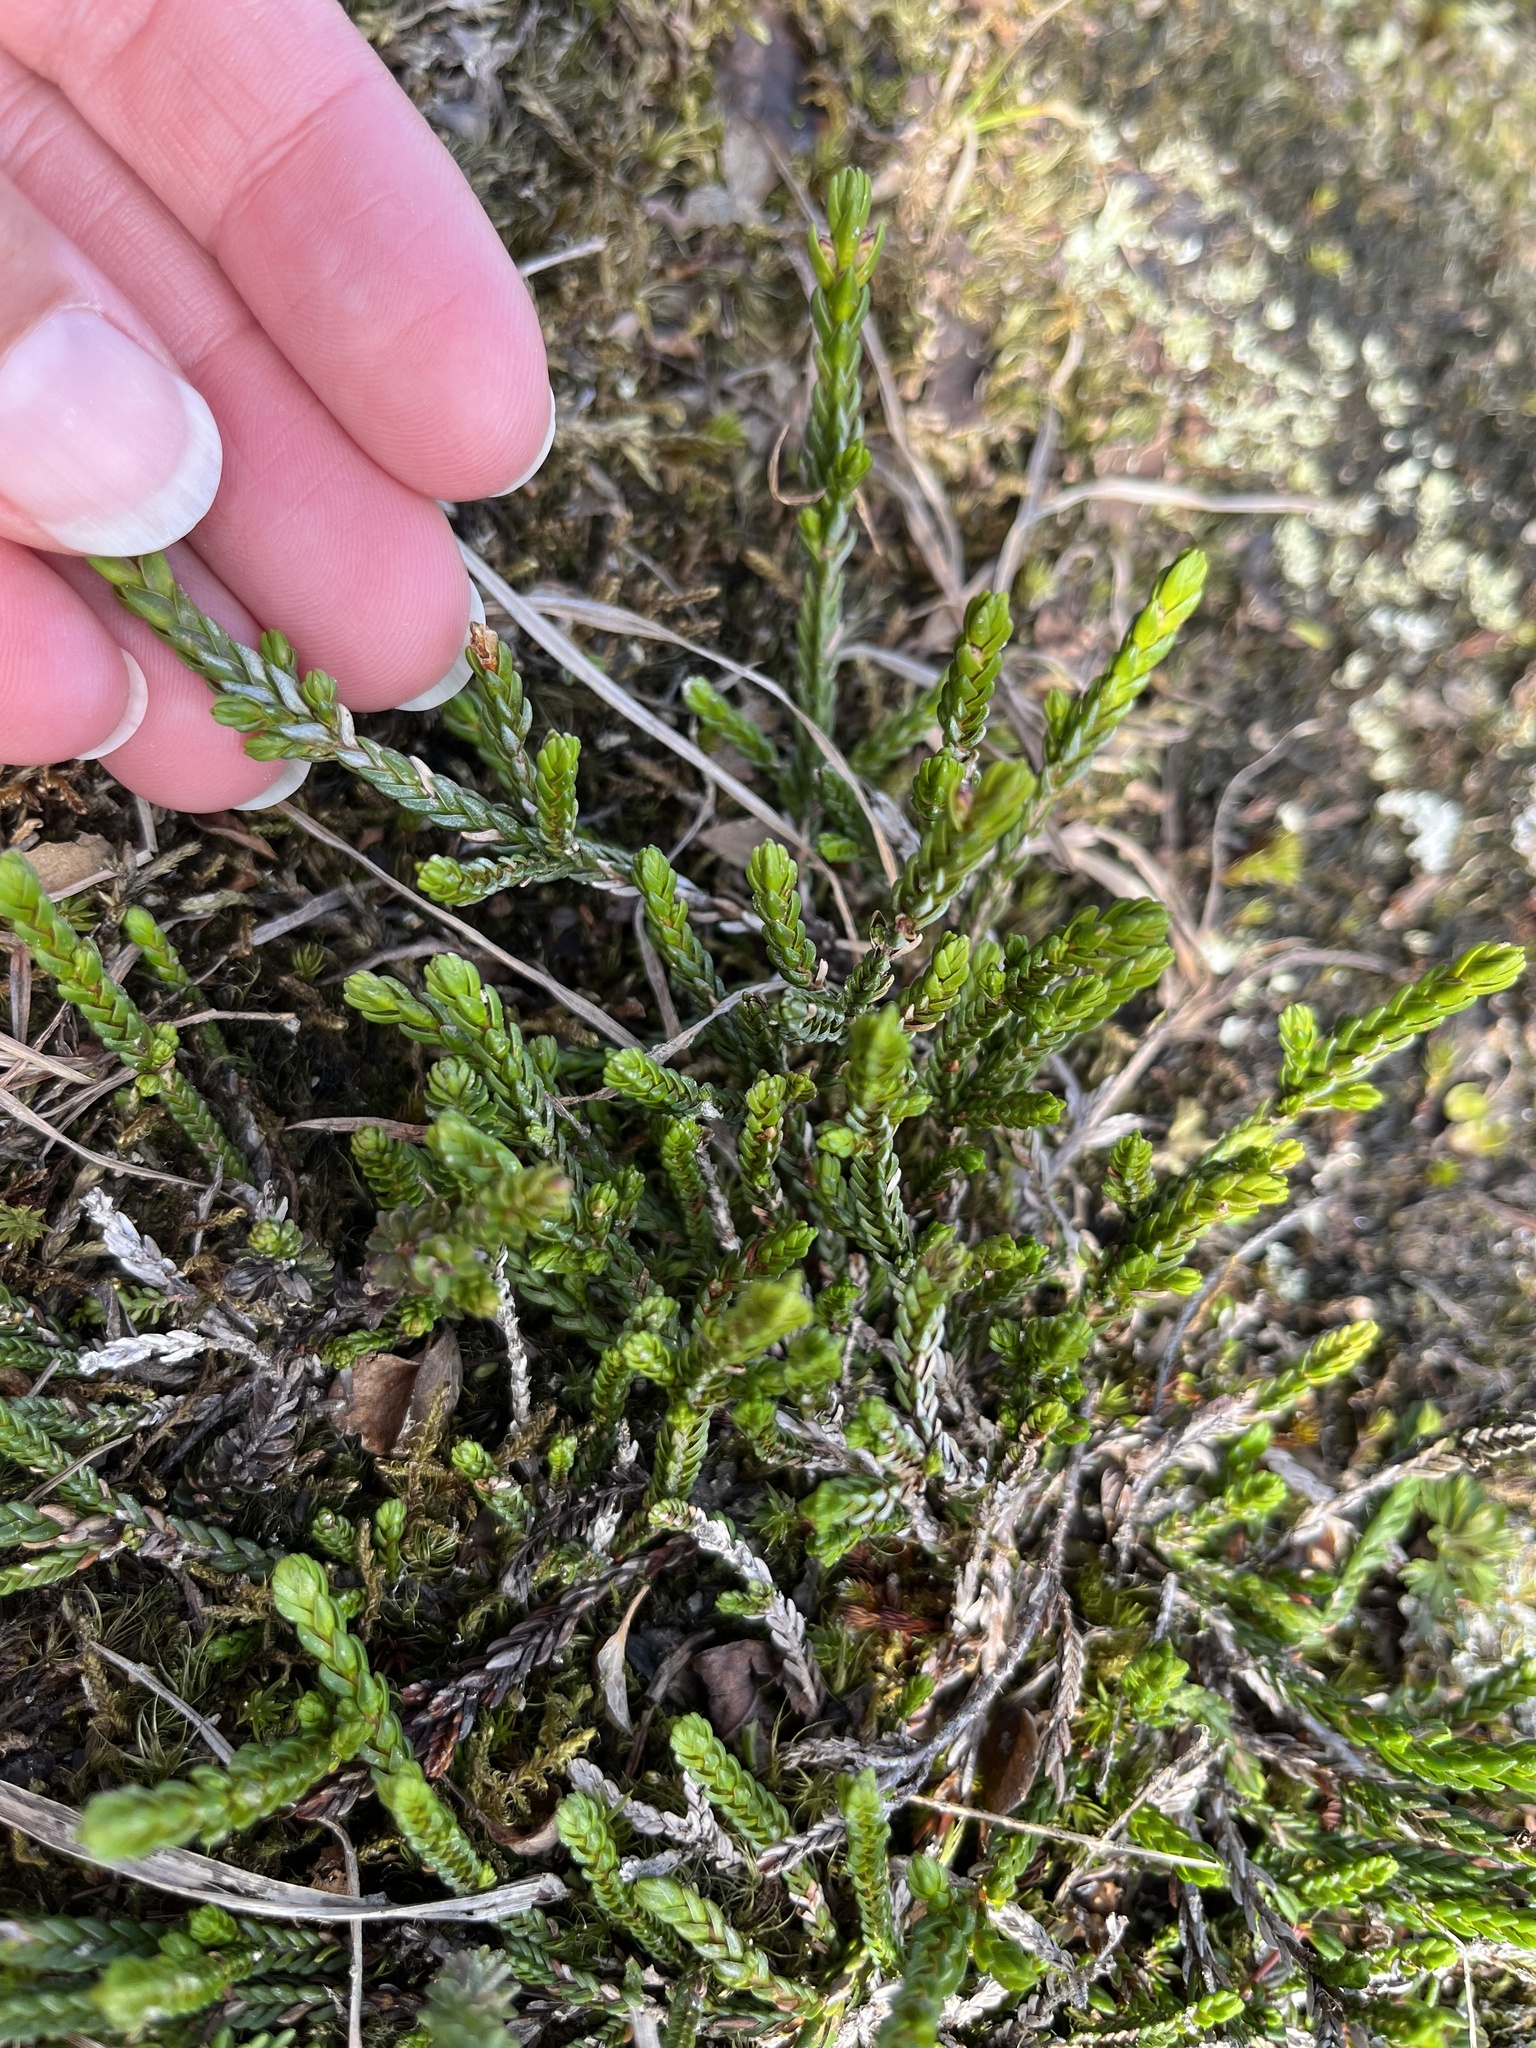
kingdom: Plantae
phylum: Tracheophyta
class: Magnoliopsida
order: Ericales
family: Ericaceae
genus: Cassiope
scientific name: Cassiope mertensiana
